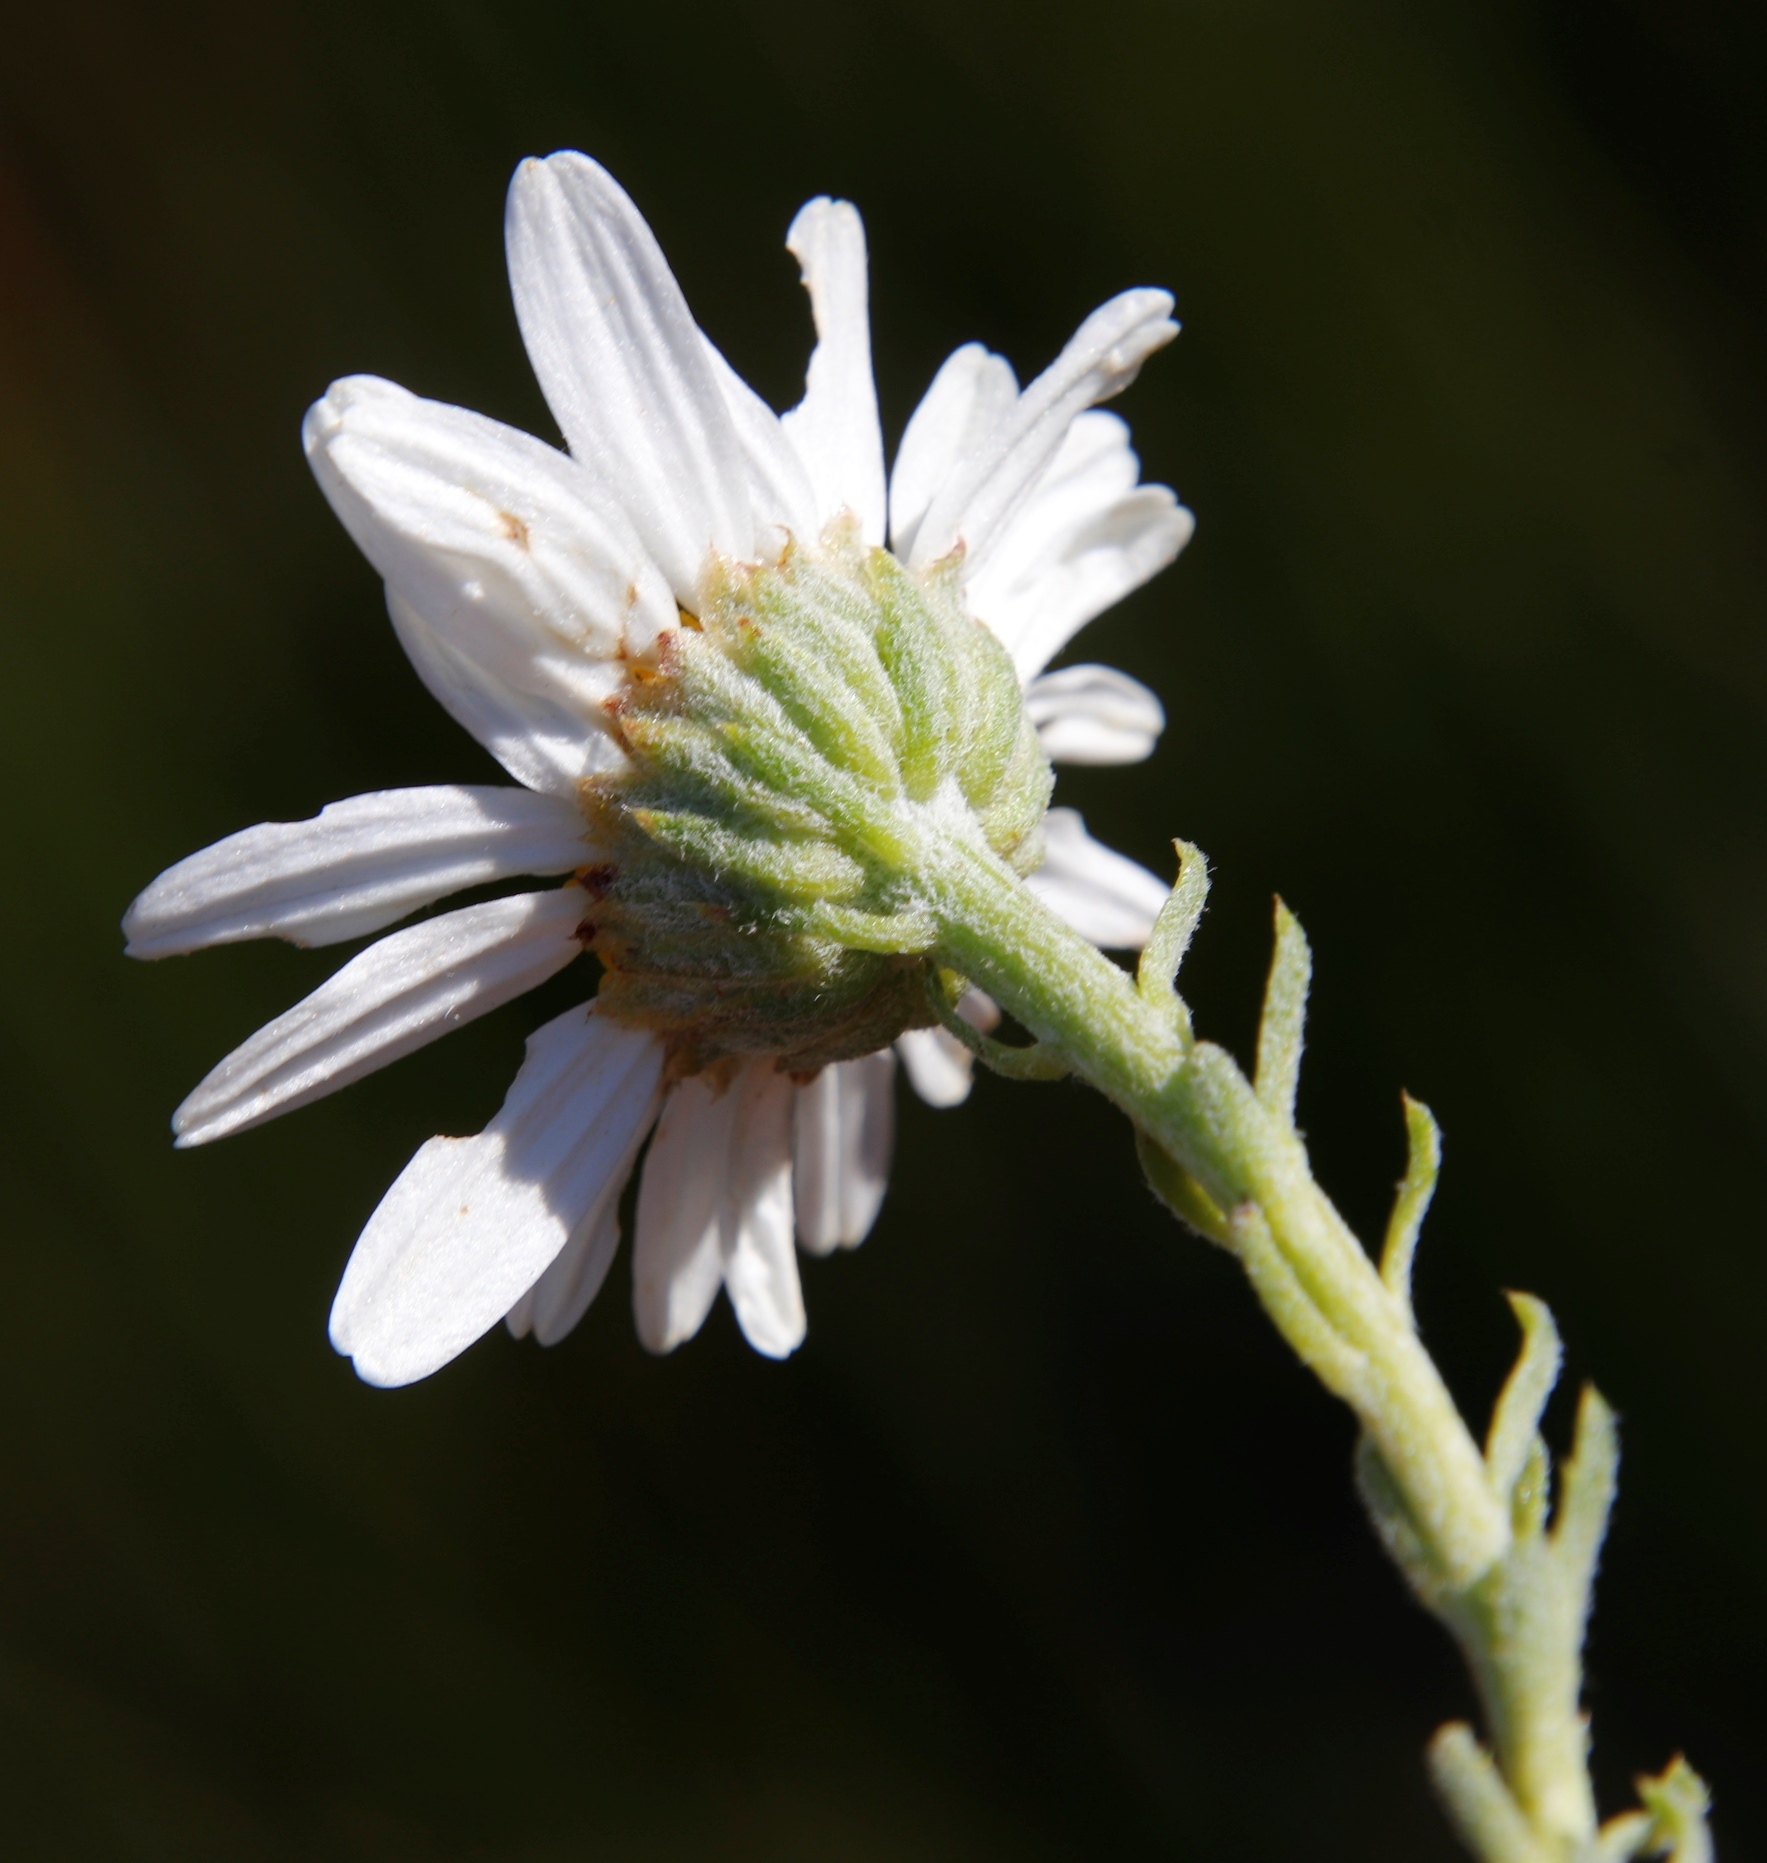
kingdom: Plantae
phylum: Tracheophyta
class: Magnoliopsida
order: Asterales
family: Asteraceae
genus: Osmitopsis
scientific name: Osmitopsis afra
